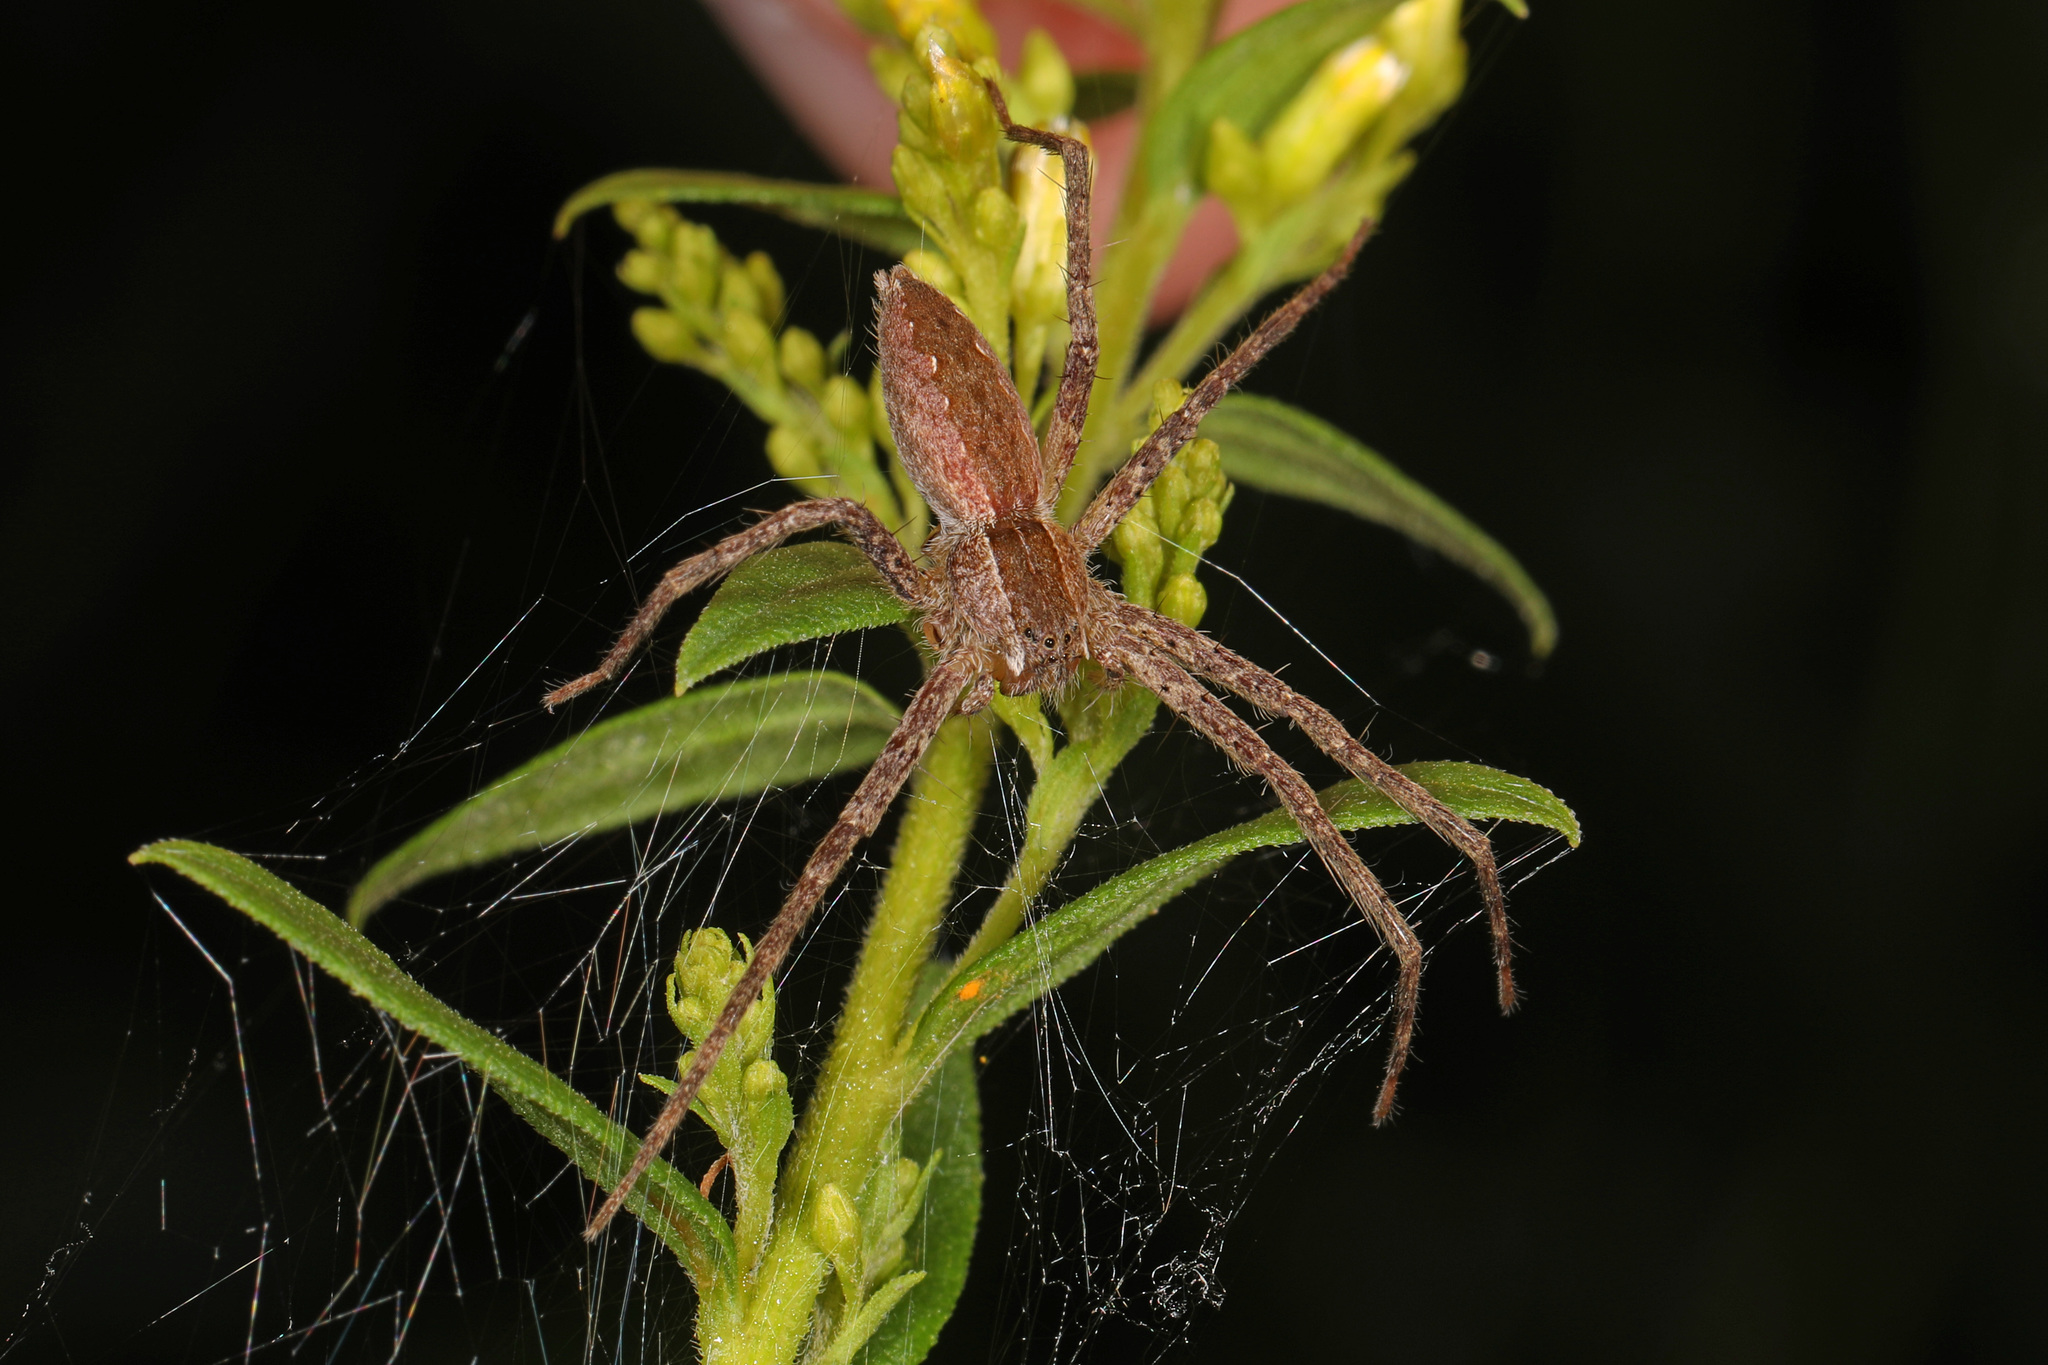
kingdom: Animalia
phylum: Arthropoda
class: Arachnida
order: Araneae
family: Pisauridae
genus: Pisaurina
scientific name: Pisaurina mira
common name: American nursery web spider
